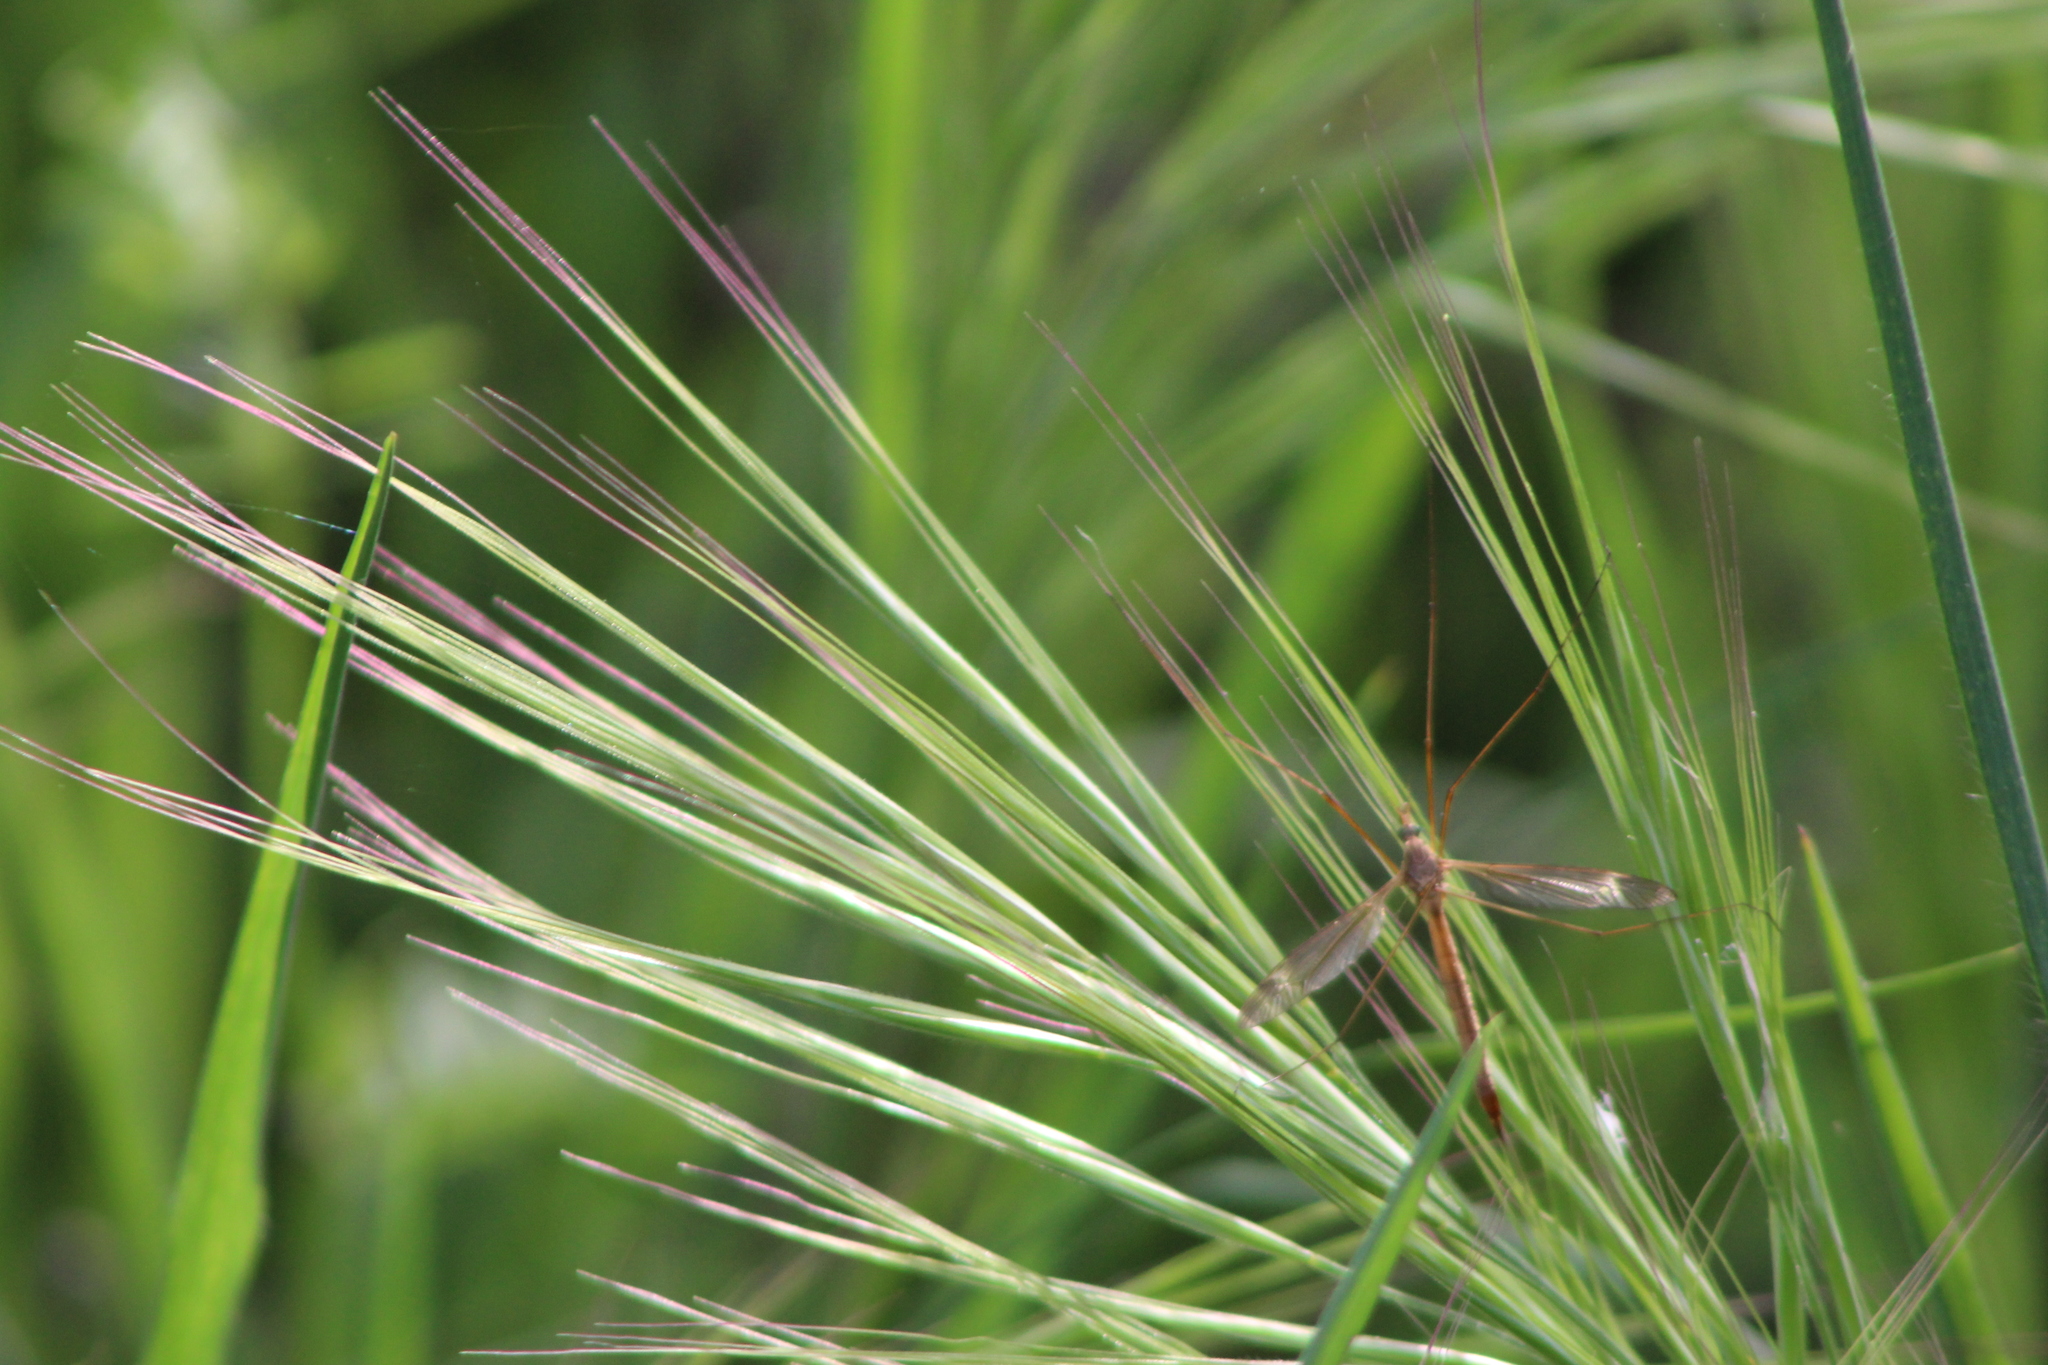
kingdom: Plantae
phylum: Tracheophyta
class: Liliopsida
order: Poales
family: Poaceae
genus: Bromus
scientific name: Bromus diandrus
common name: Ripgut brome
